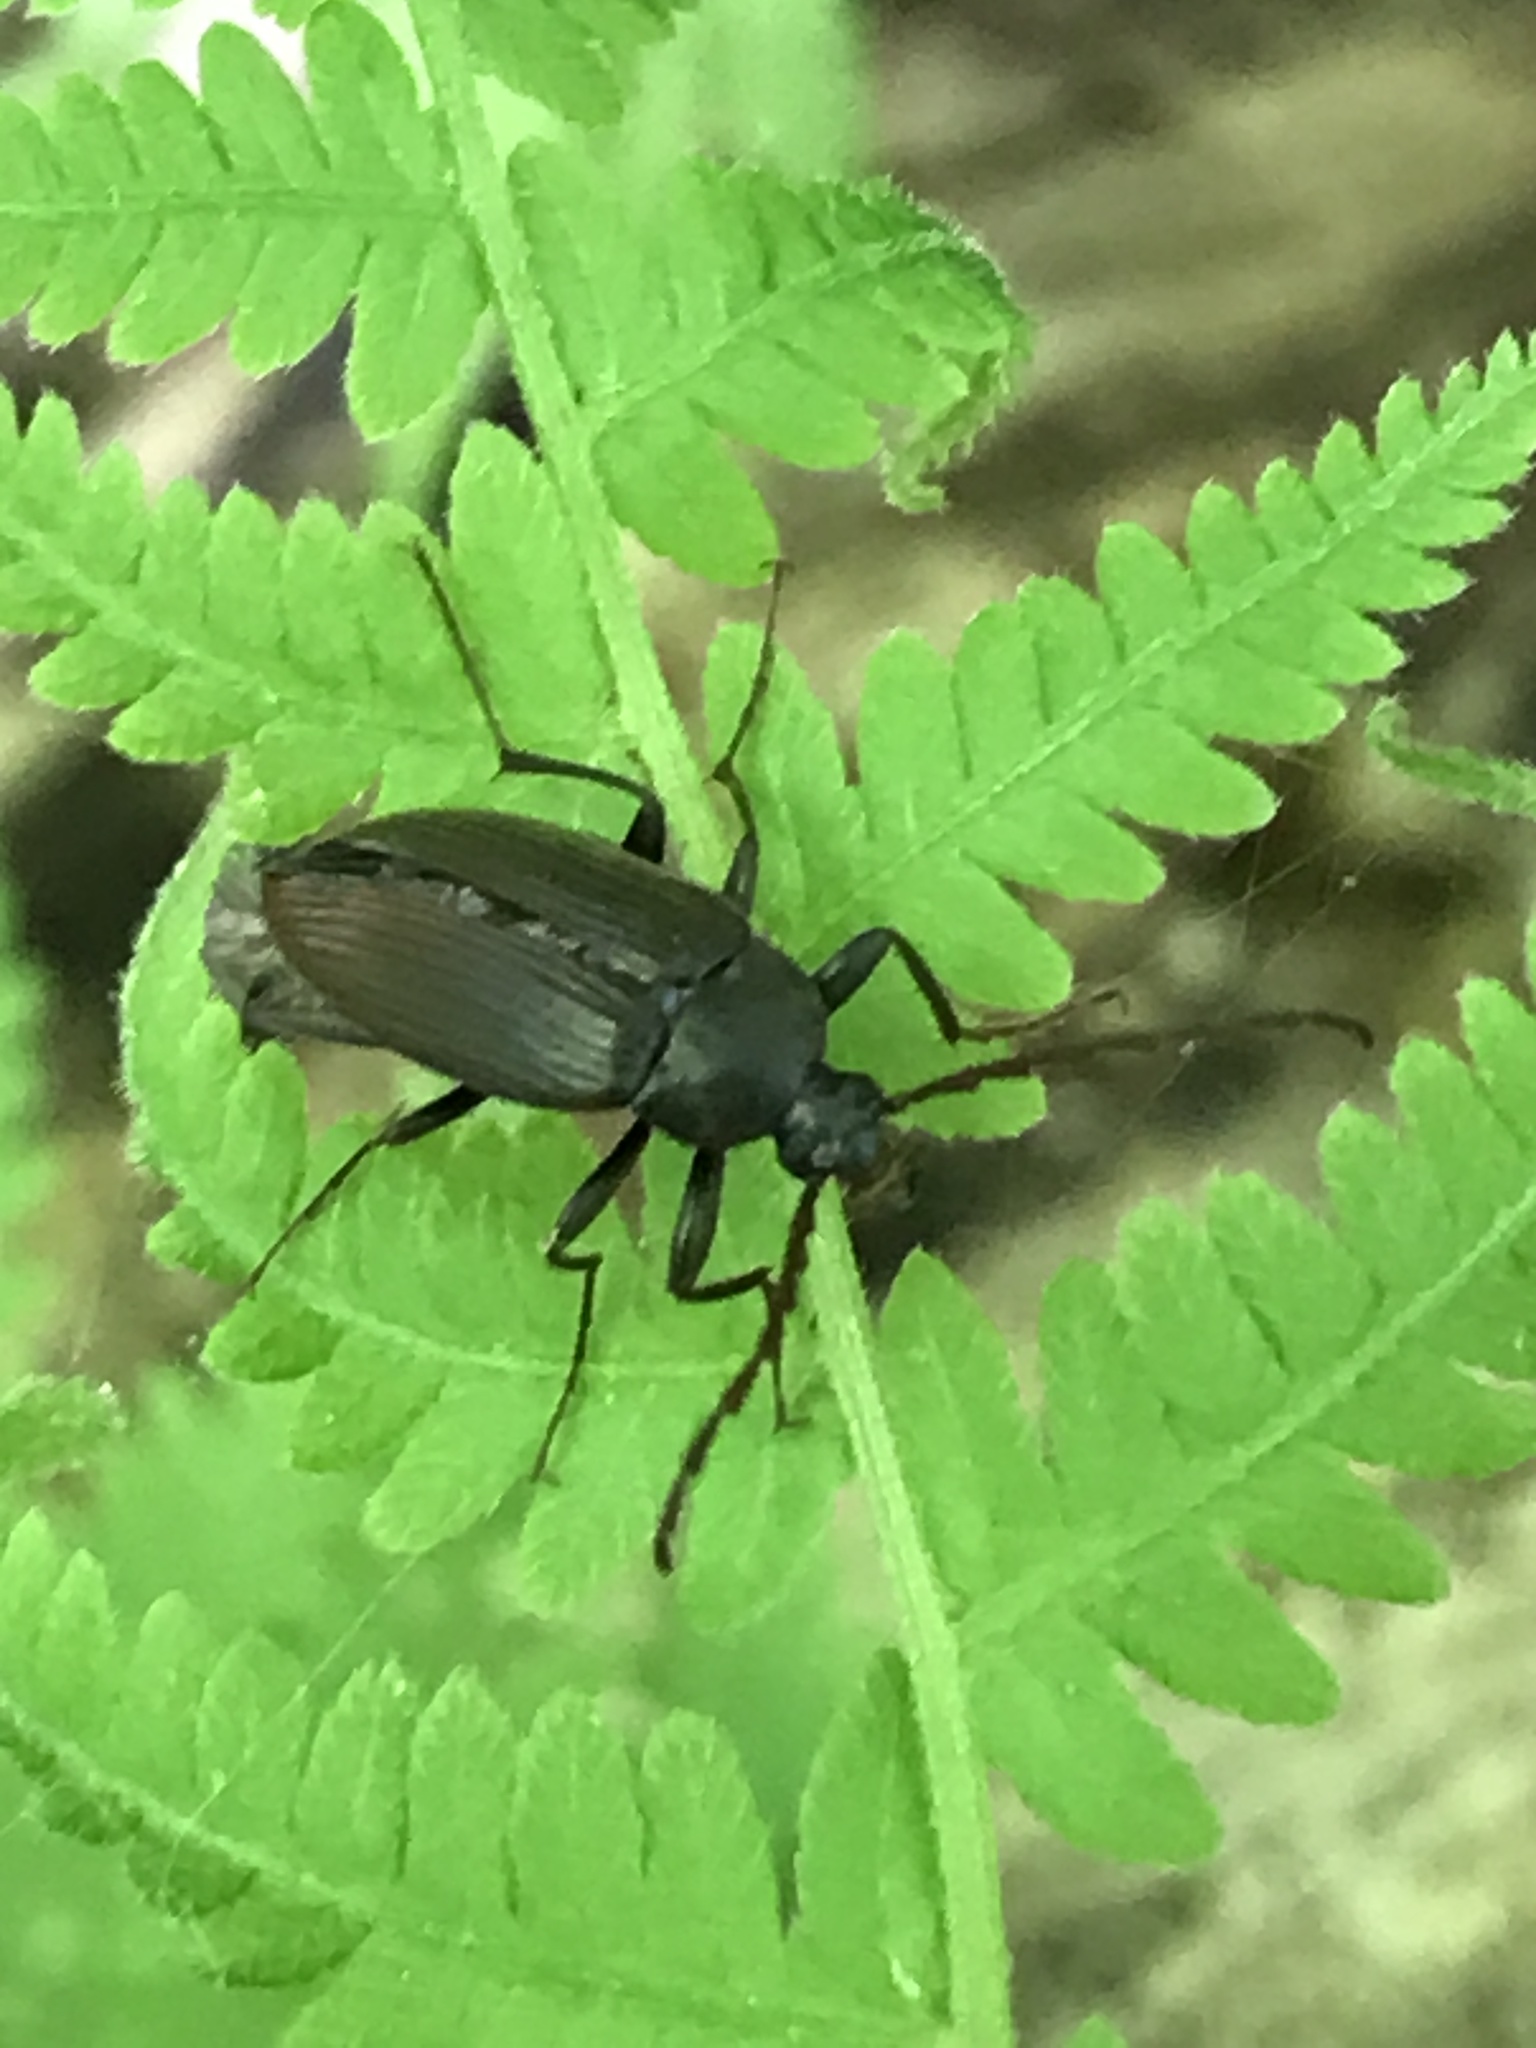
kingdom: Animalia
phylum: Arthropoda
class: Insecta
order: Coleoptera
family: Tenebrionidae
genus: Capnochroa
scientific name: Capnochroa fuliginosa
